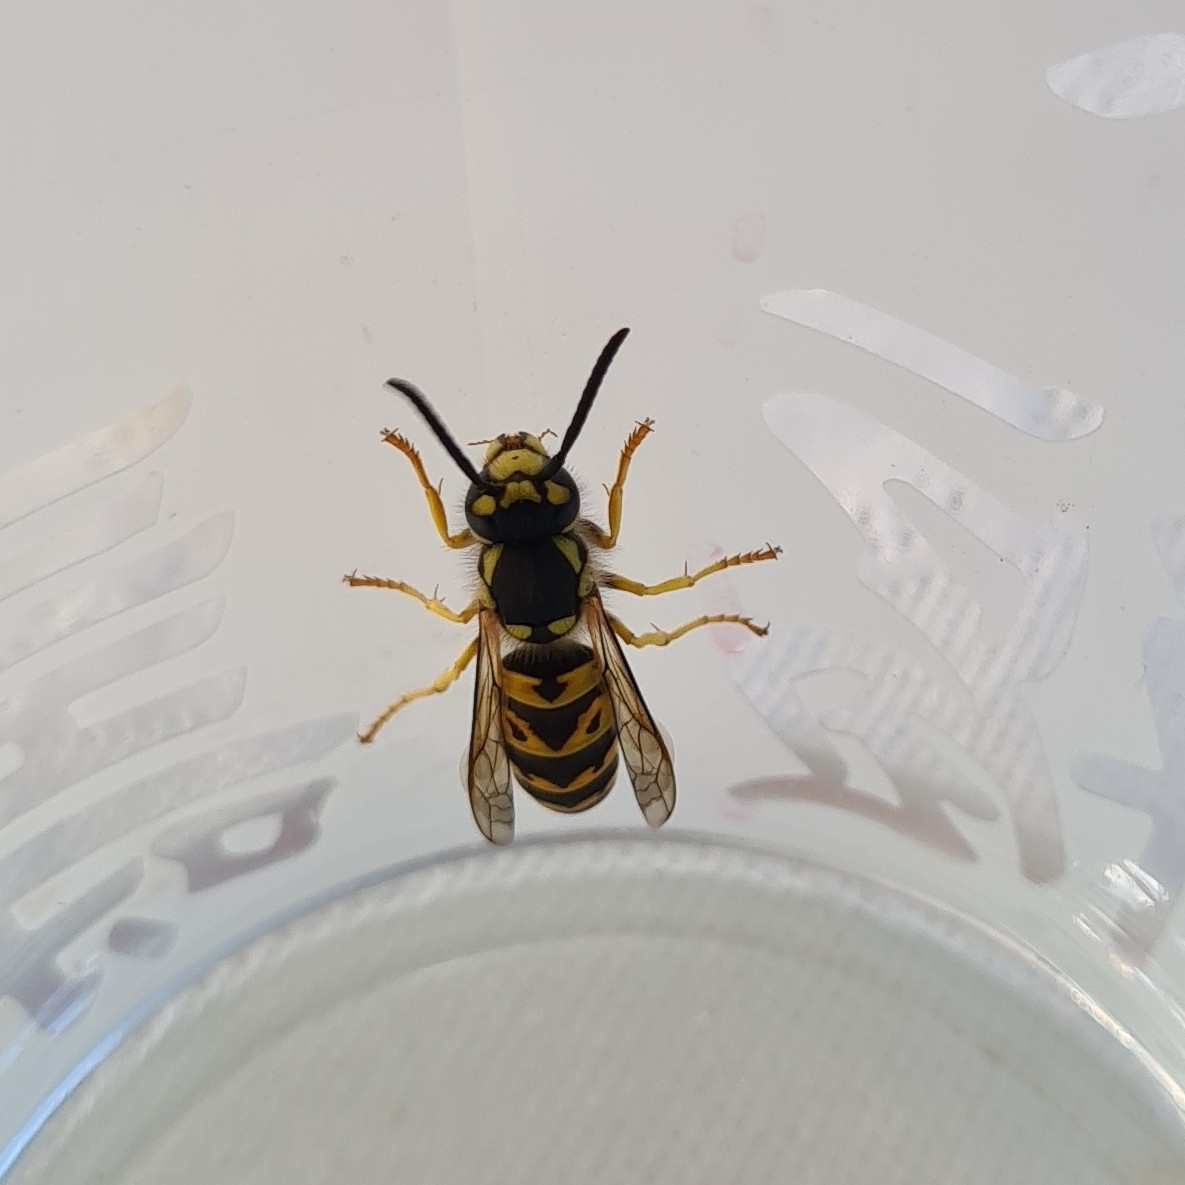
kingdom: Animalia
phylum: Arthropoda
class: Insecta
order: Hymenoptera
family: Vespidae
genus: Vespula
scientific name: Vespula germanica
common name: German wasp
